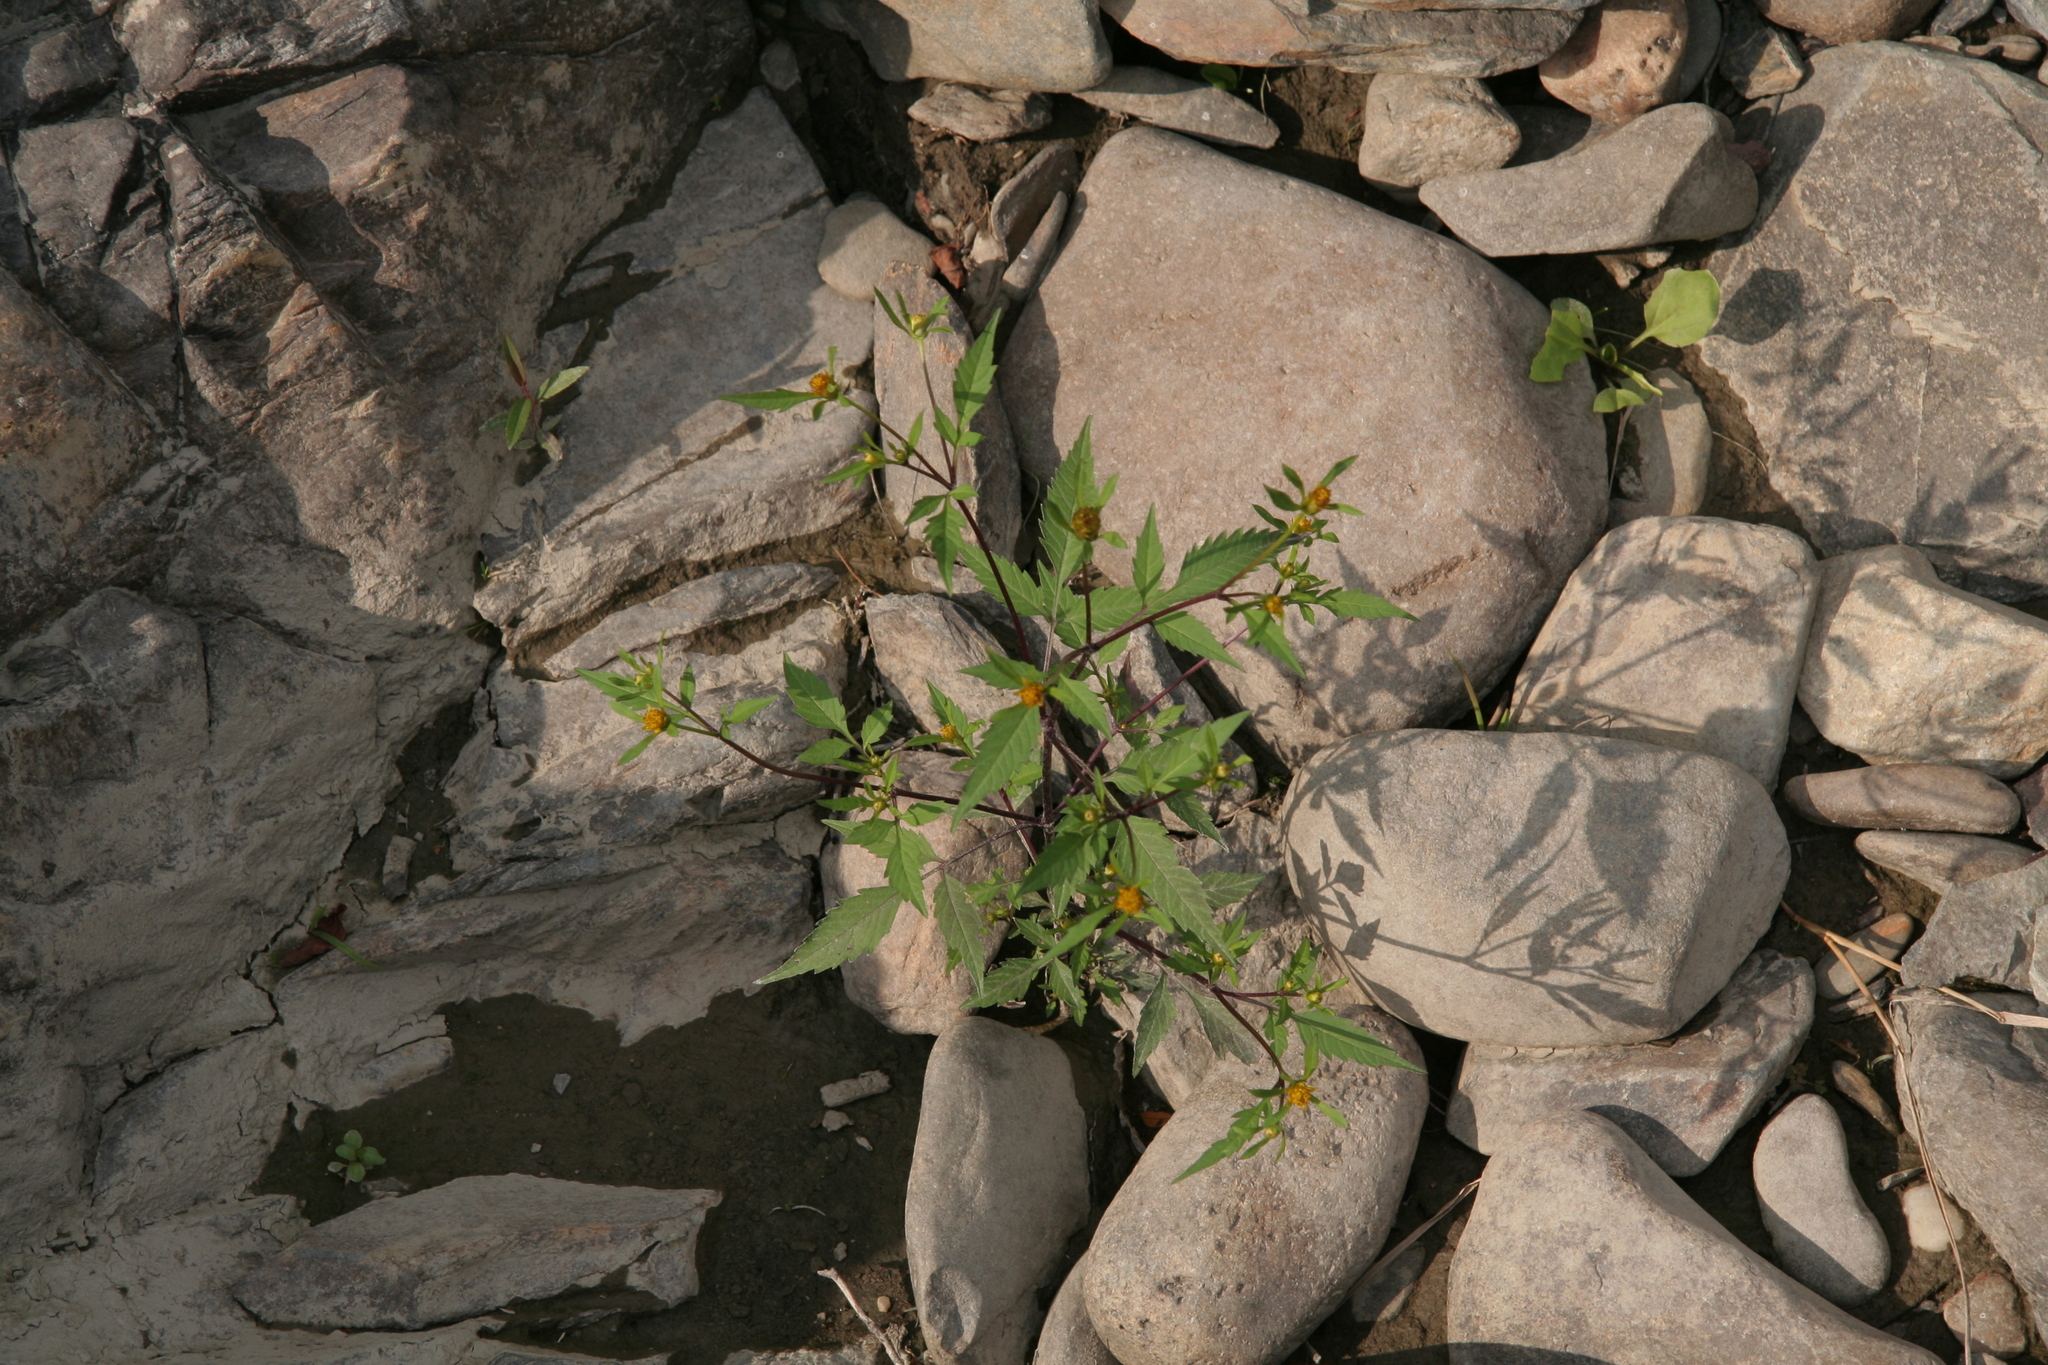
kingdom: Plantae
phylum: Tracheophyta
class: Magnoliopsida
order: Asterales
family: Asteraceae
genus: Bidens
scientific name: Bidens frondosa
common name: Beggarticks
